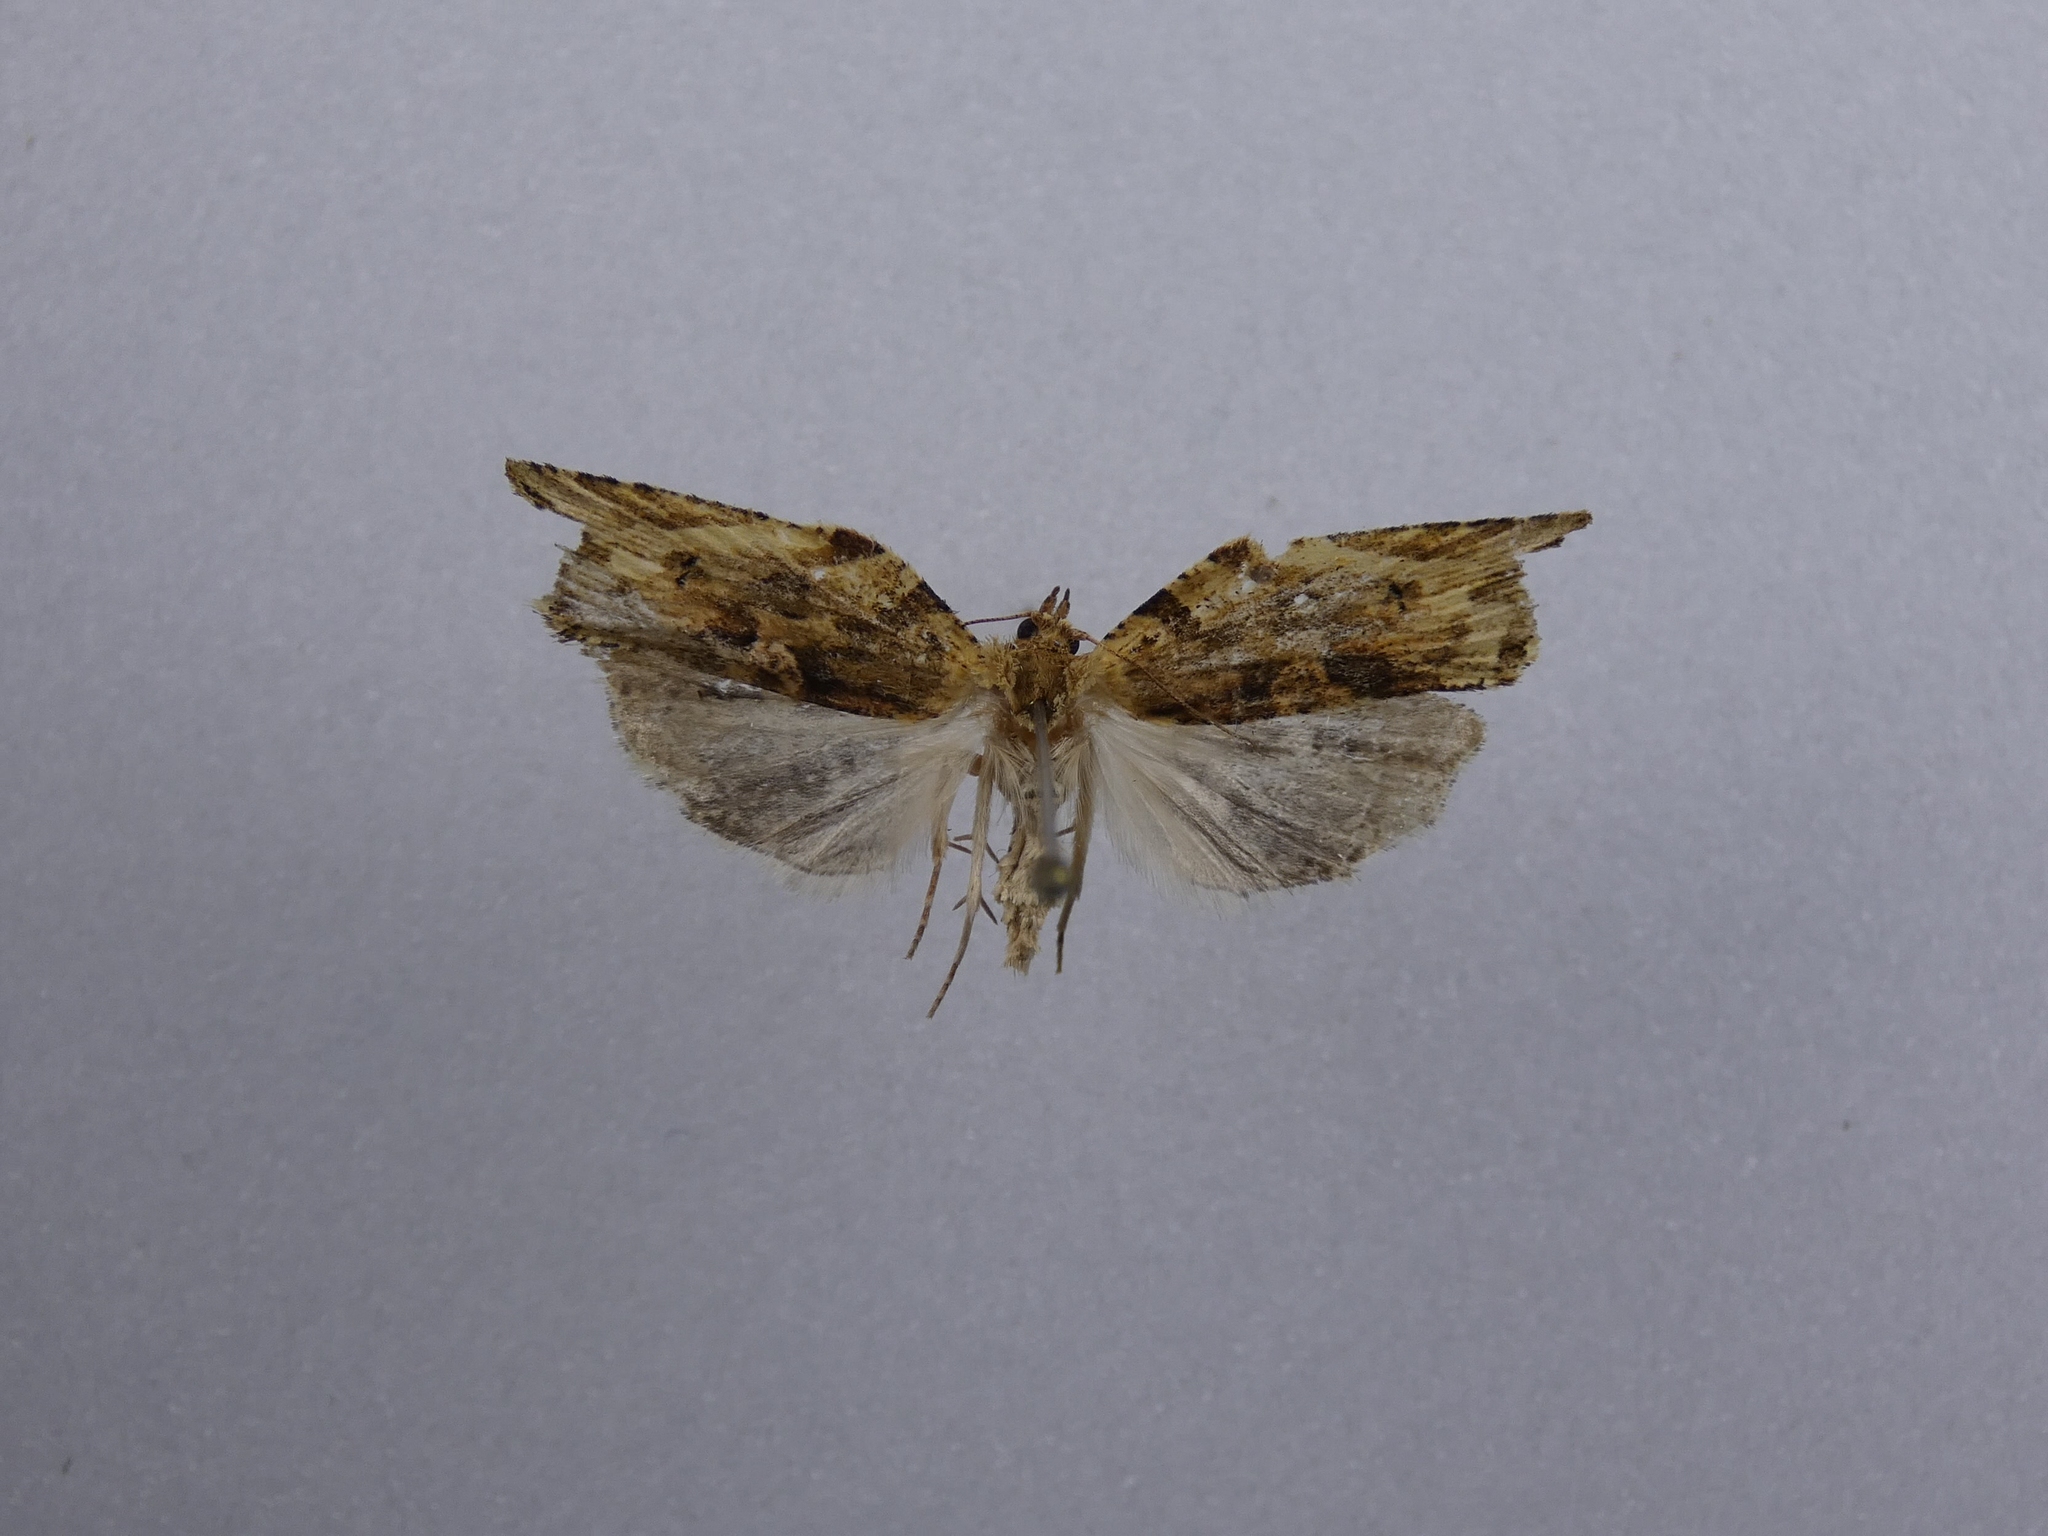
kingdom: Animalia
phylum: Arthropoda
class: Insecta
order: Lepidoptera
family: Tortricidae
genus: Epalxiphora
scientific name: Epalxiphora axenana
